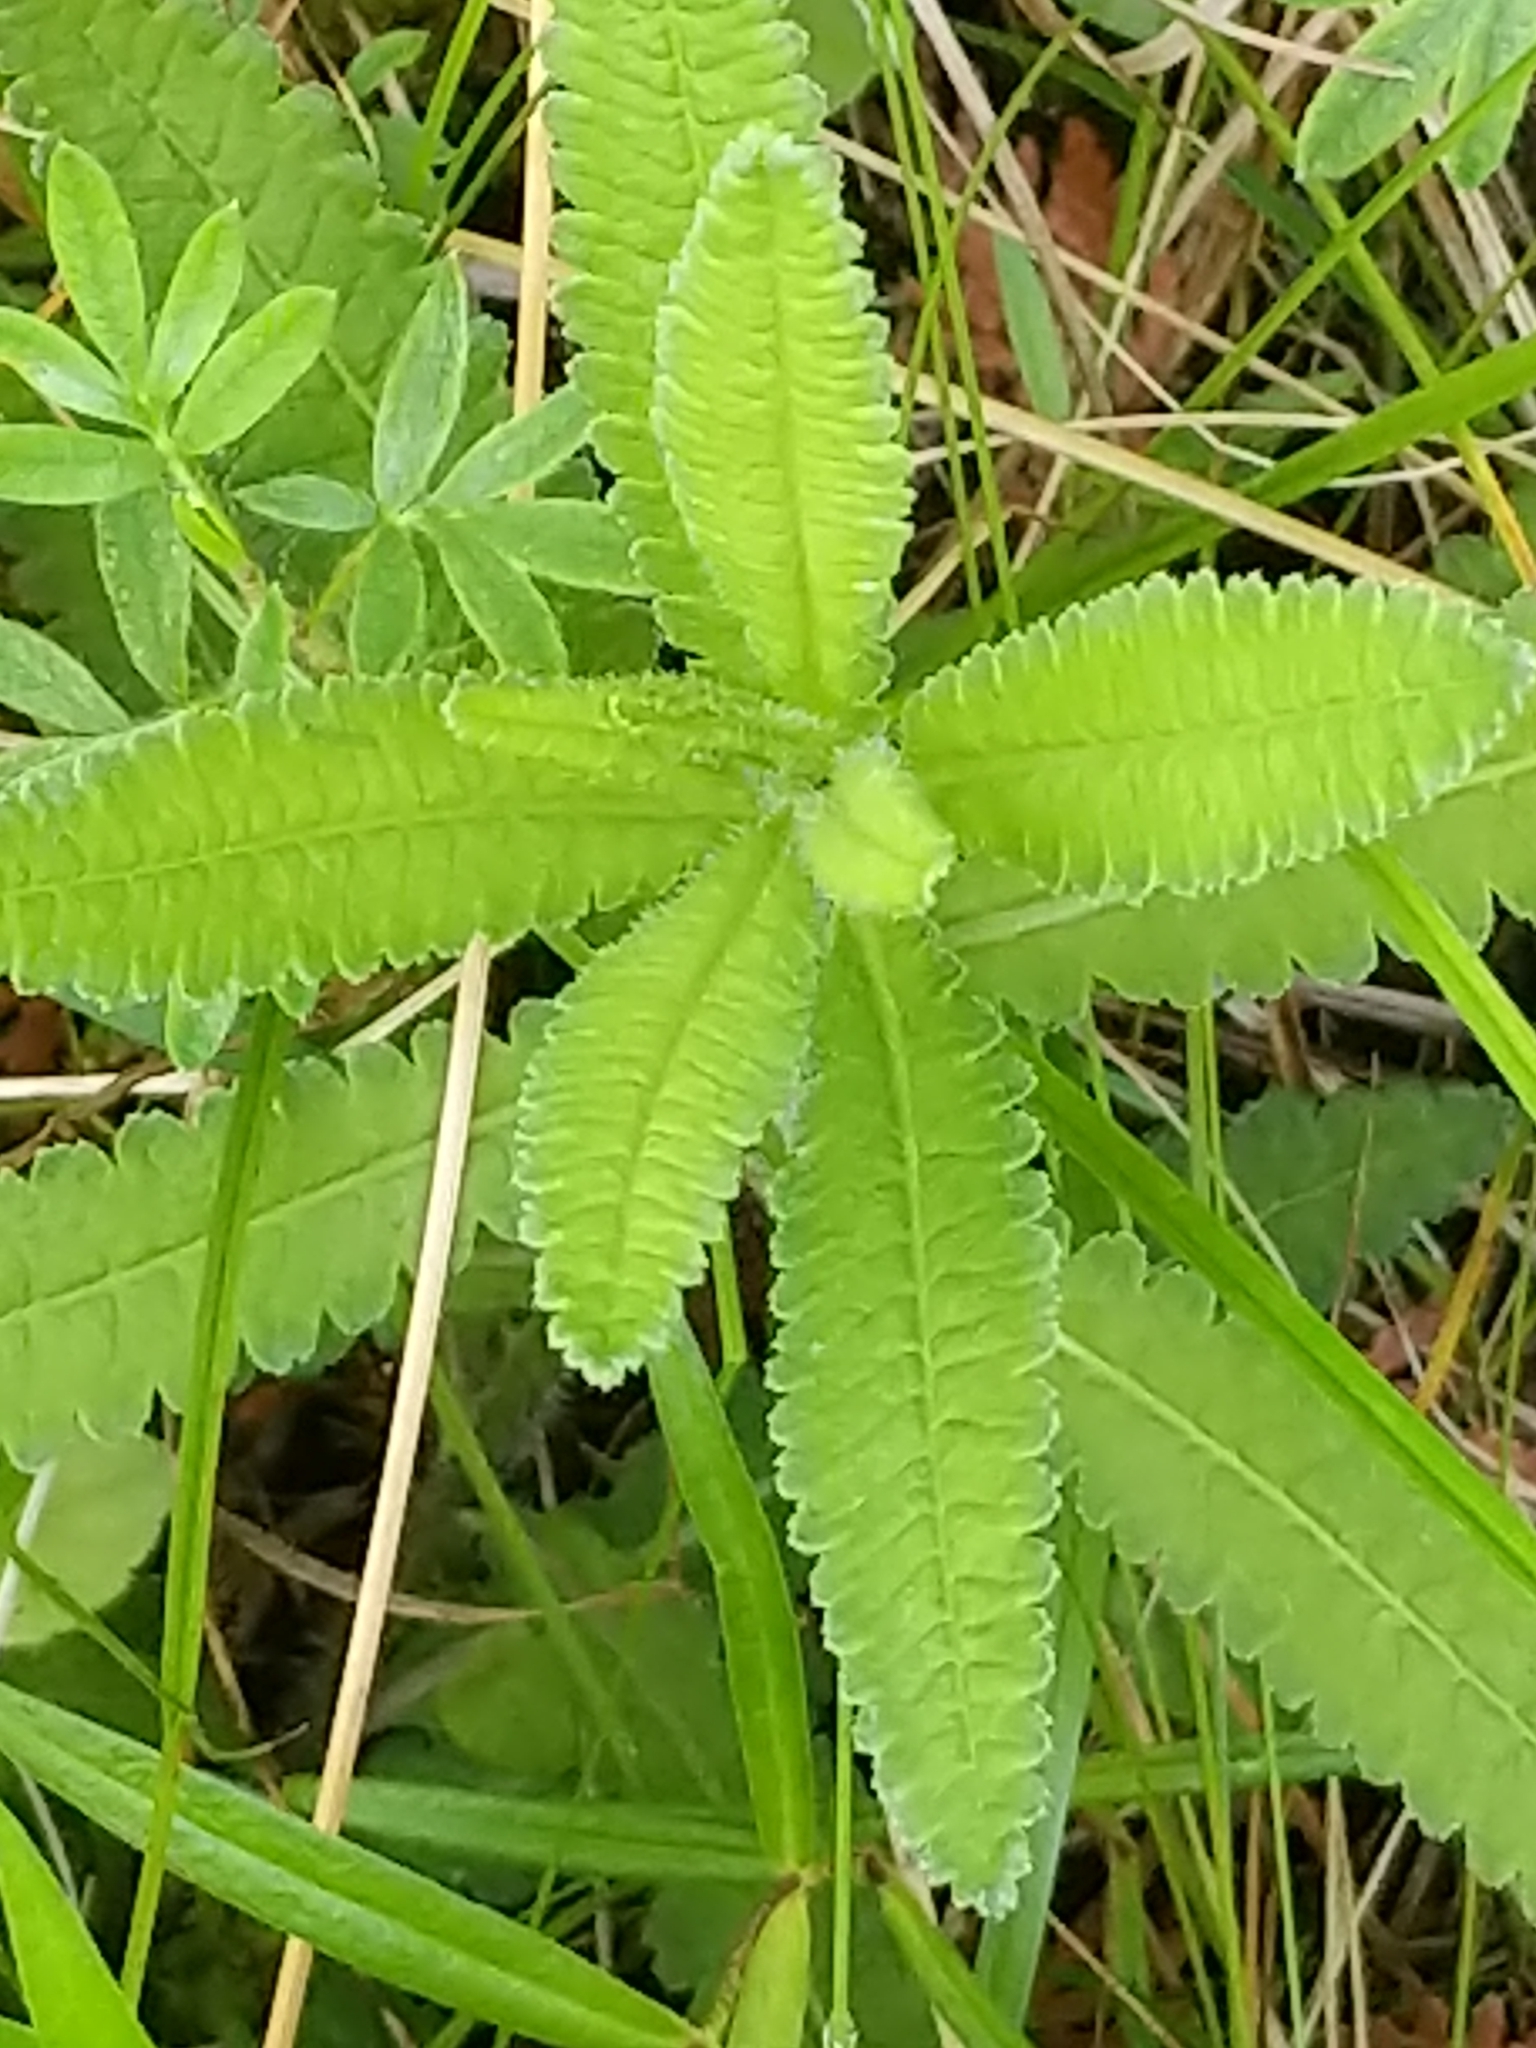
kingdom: Plantae
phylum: Tracheophyta
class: Magnoliopsida
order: Lamiales
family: Orobanchaceae
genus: Pedicularis
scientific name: Pedicularis lanceolata
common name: Swamp lousewort
